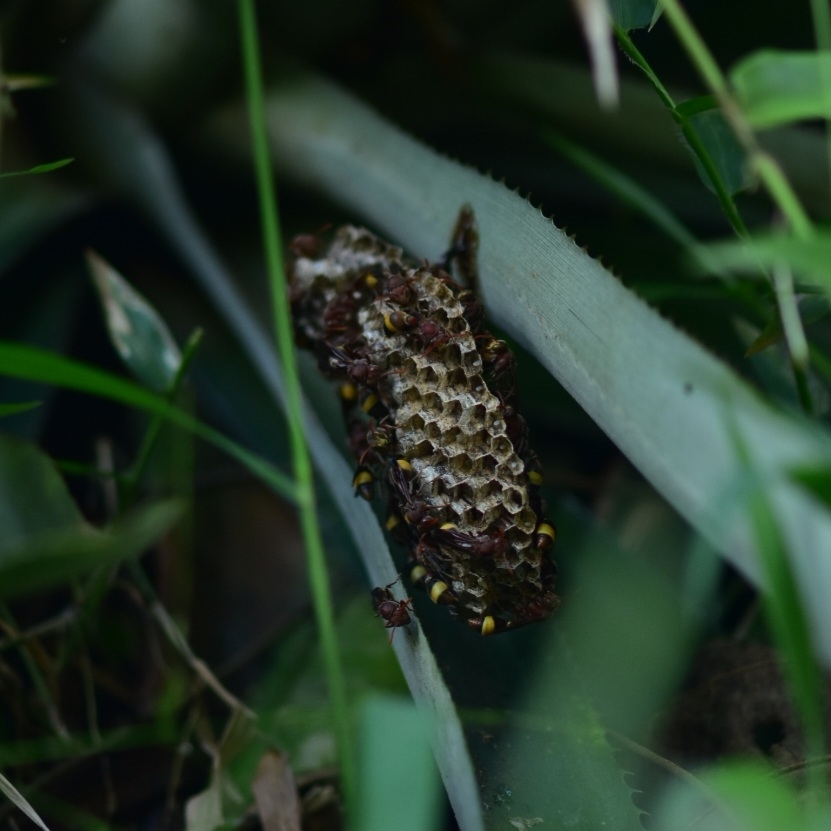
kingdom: Animalia
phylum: Arthropoda
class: Insecta
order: Hymenoptera
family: Vespidae
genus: Ropalidia
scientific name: Ropalidia
